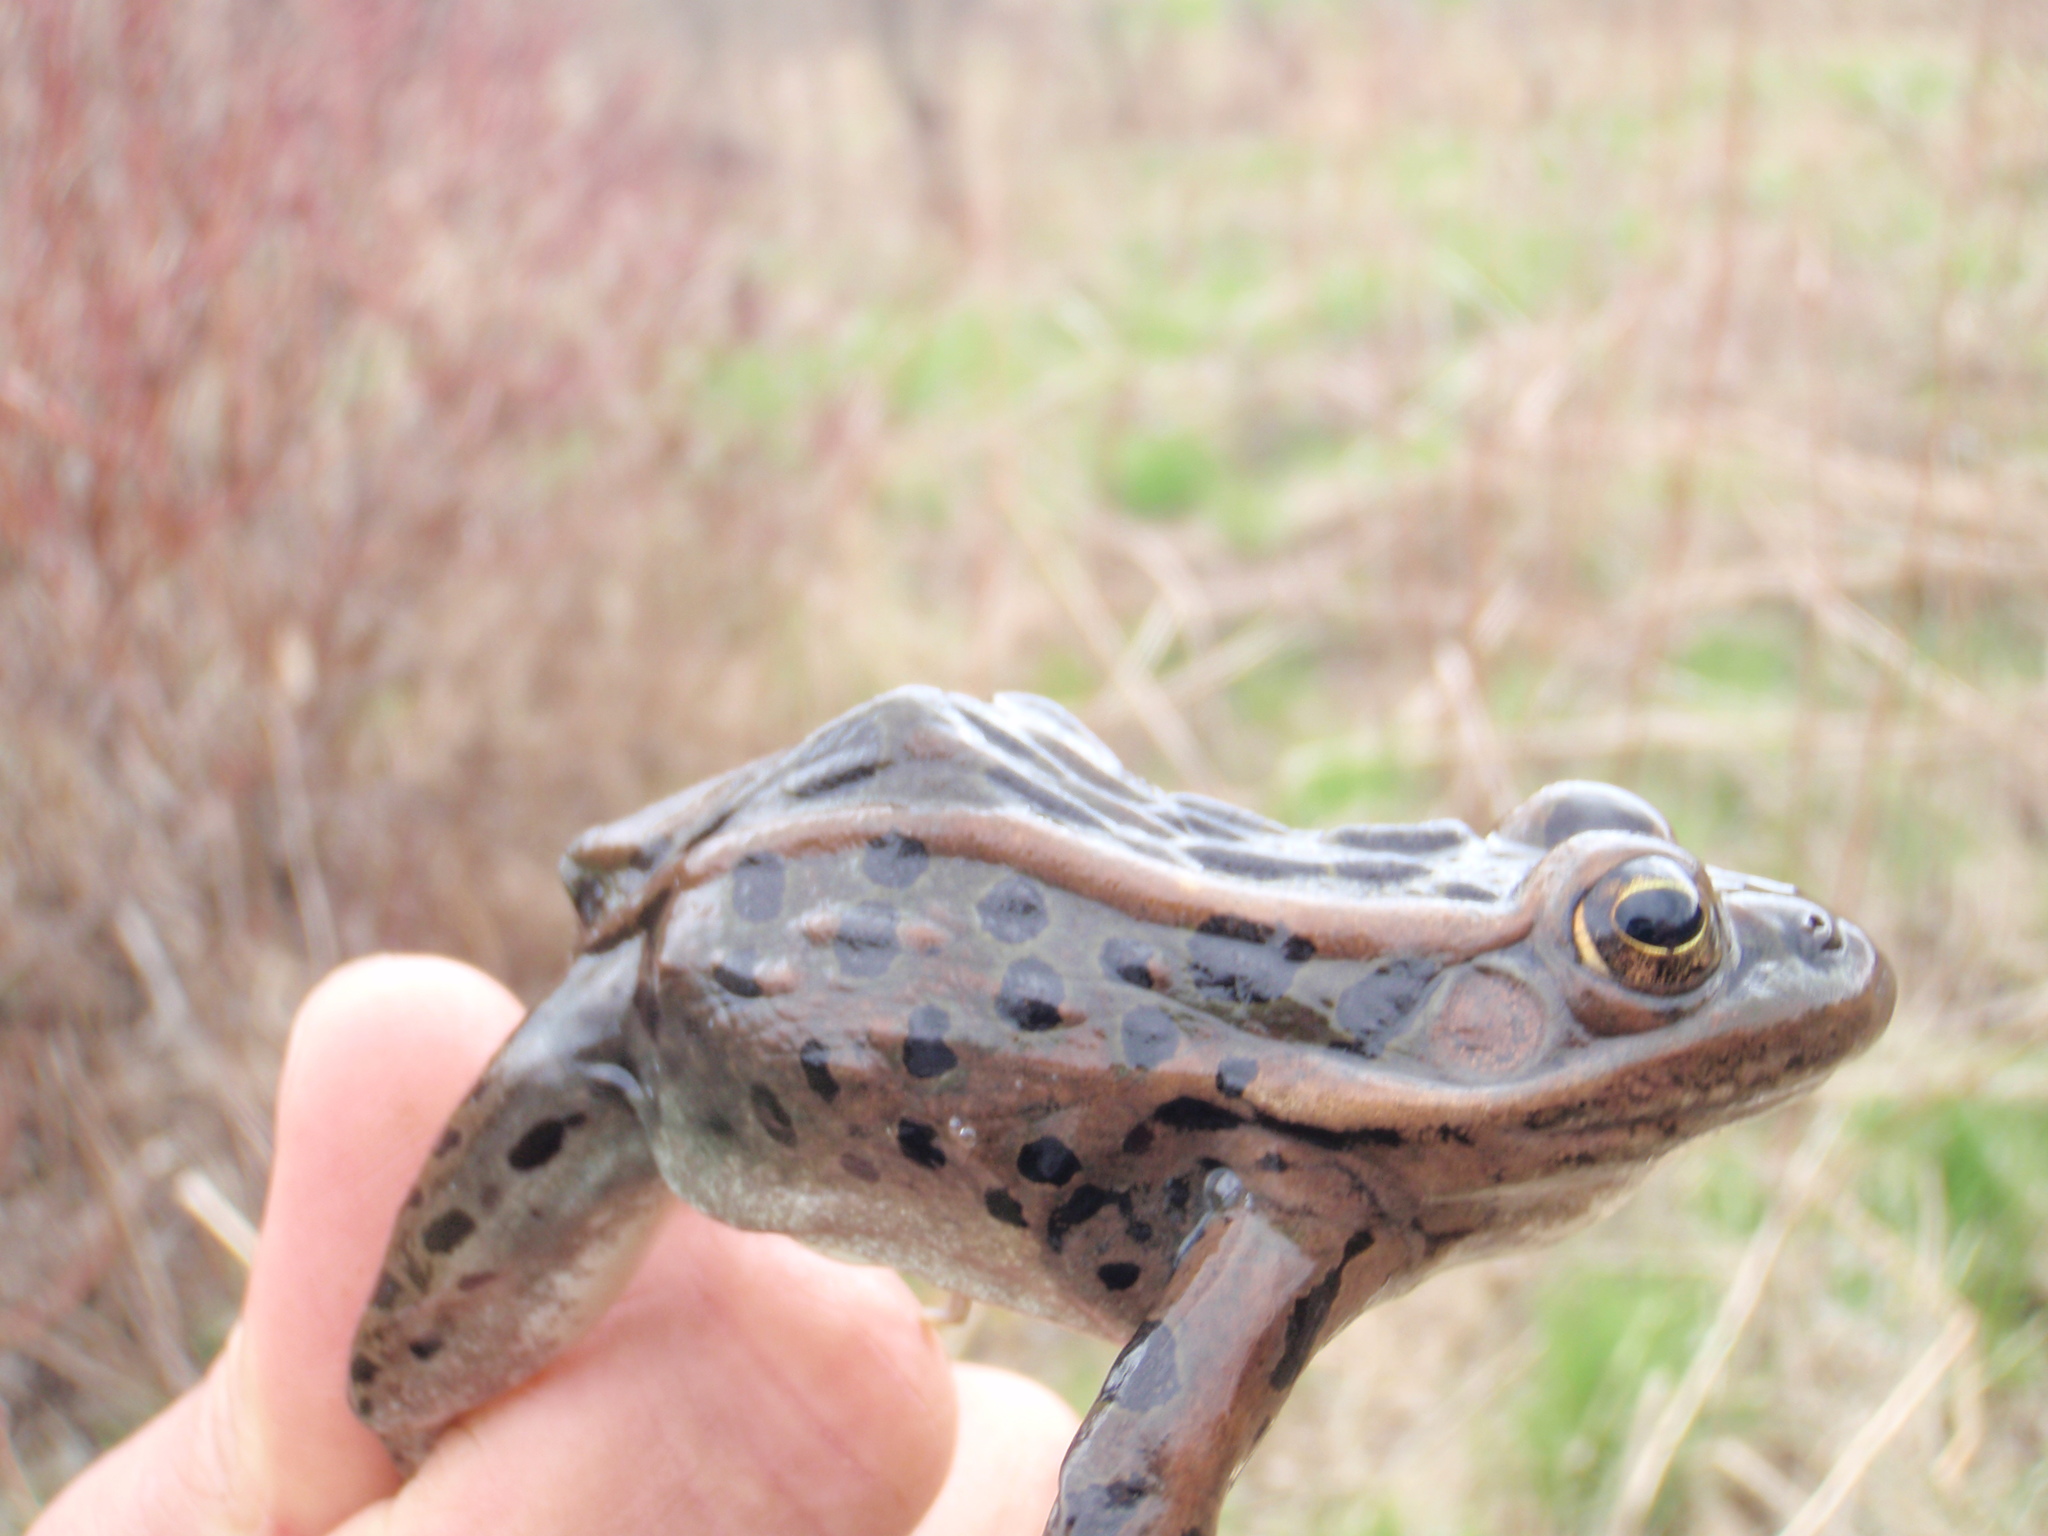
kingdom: Animalia
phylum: Chordata
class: Amphibia
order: Anura
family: Ranidae
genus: Lithobates
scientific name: Lithobates pipiens
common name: Northern leopard frog
